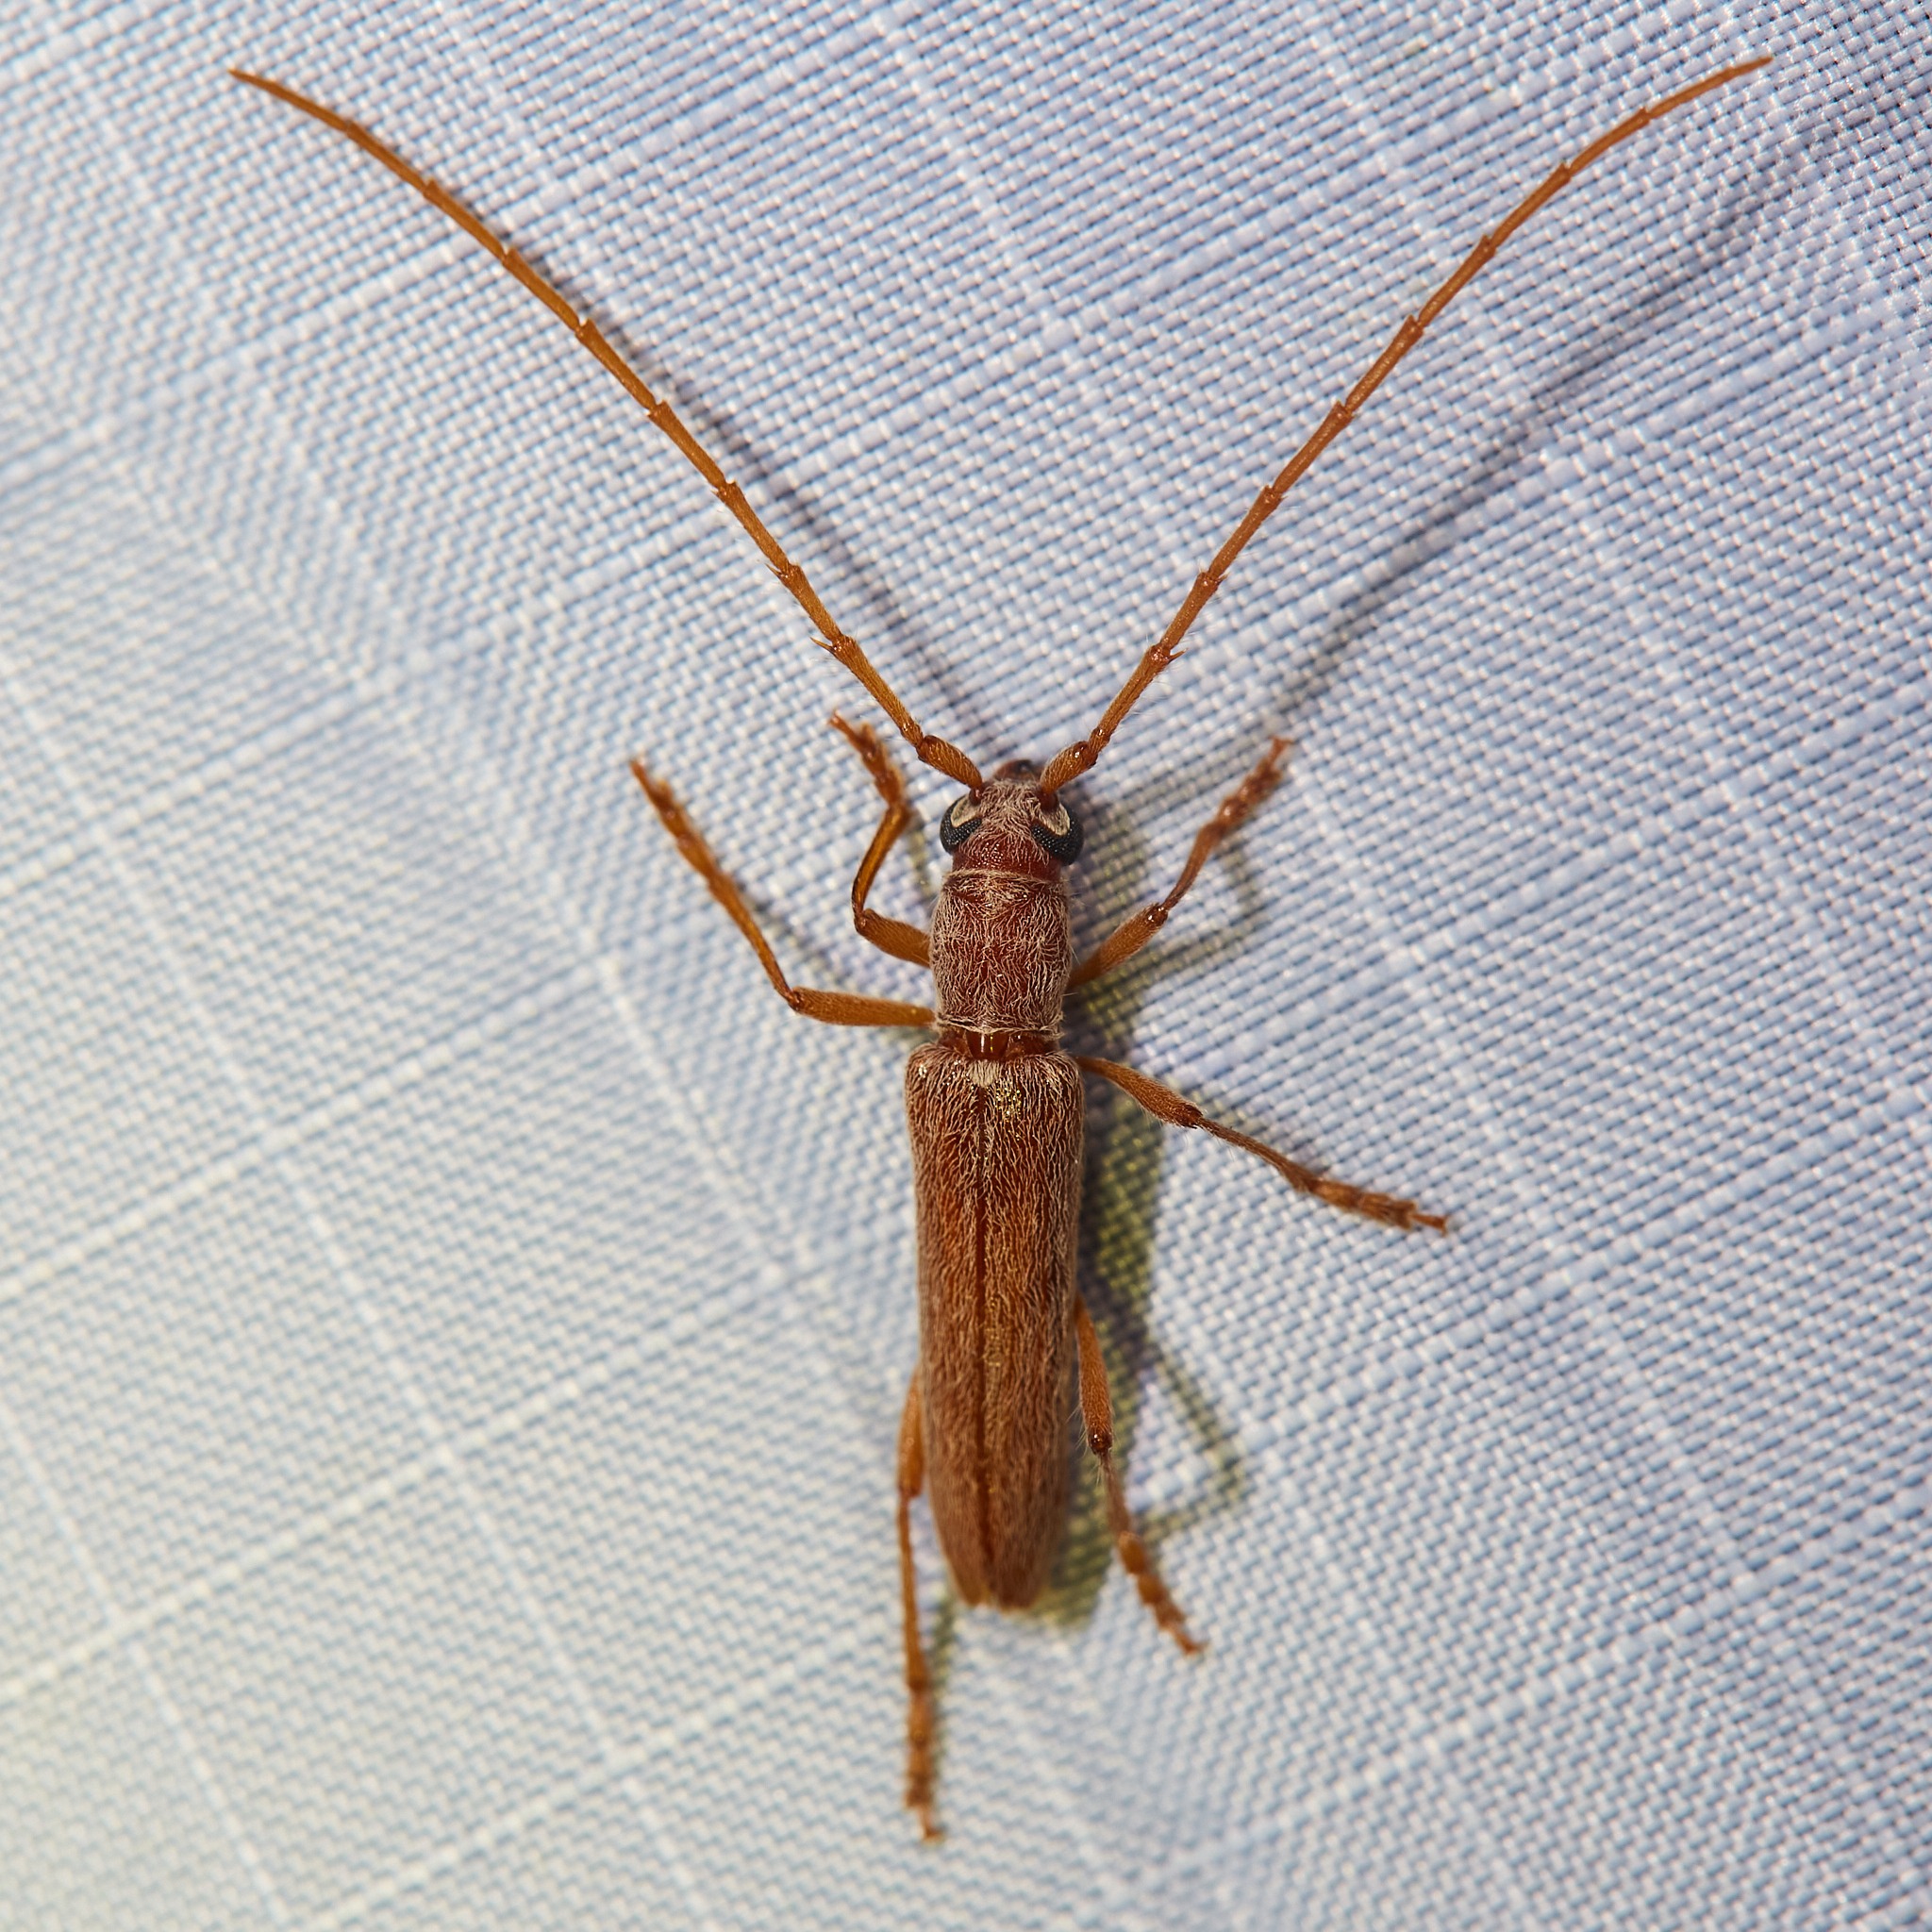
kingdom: Animalia
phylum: Arthropoda
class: Insecta
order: Coleoptera
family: Cerambycidae
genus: Aneflomorpha
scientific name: Aneflomorpha lineare
